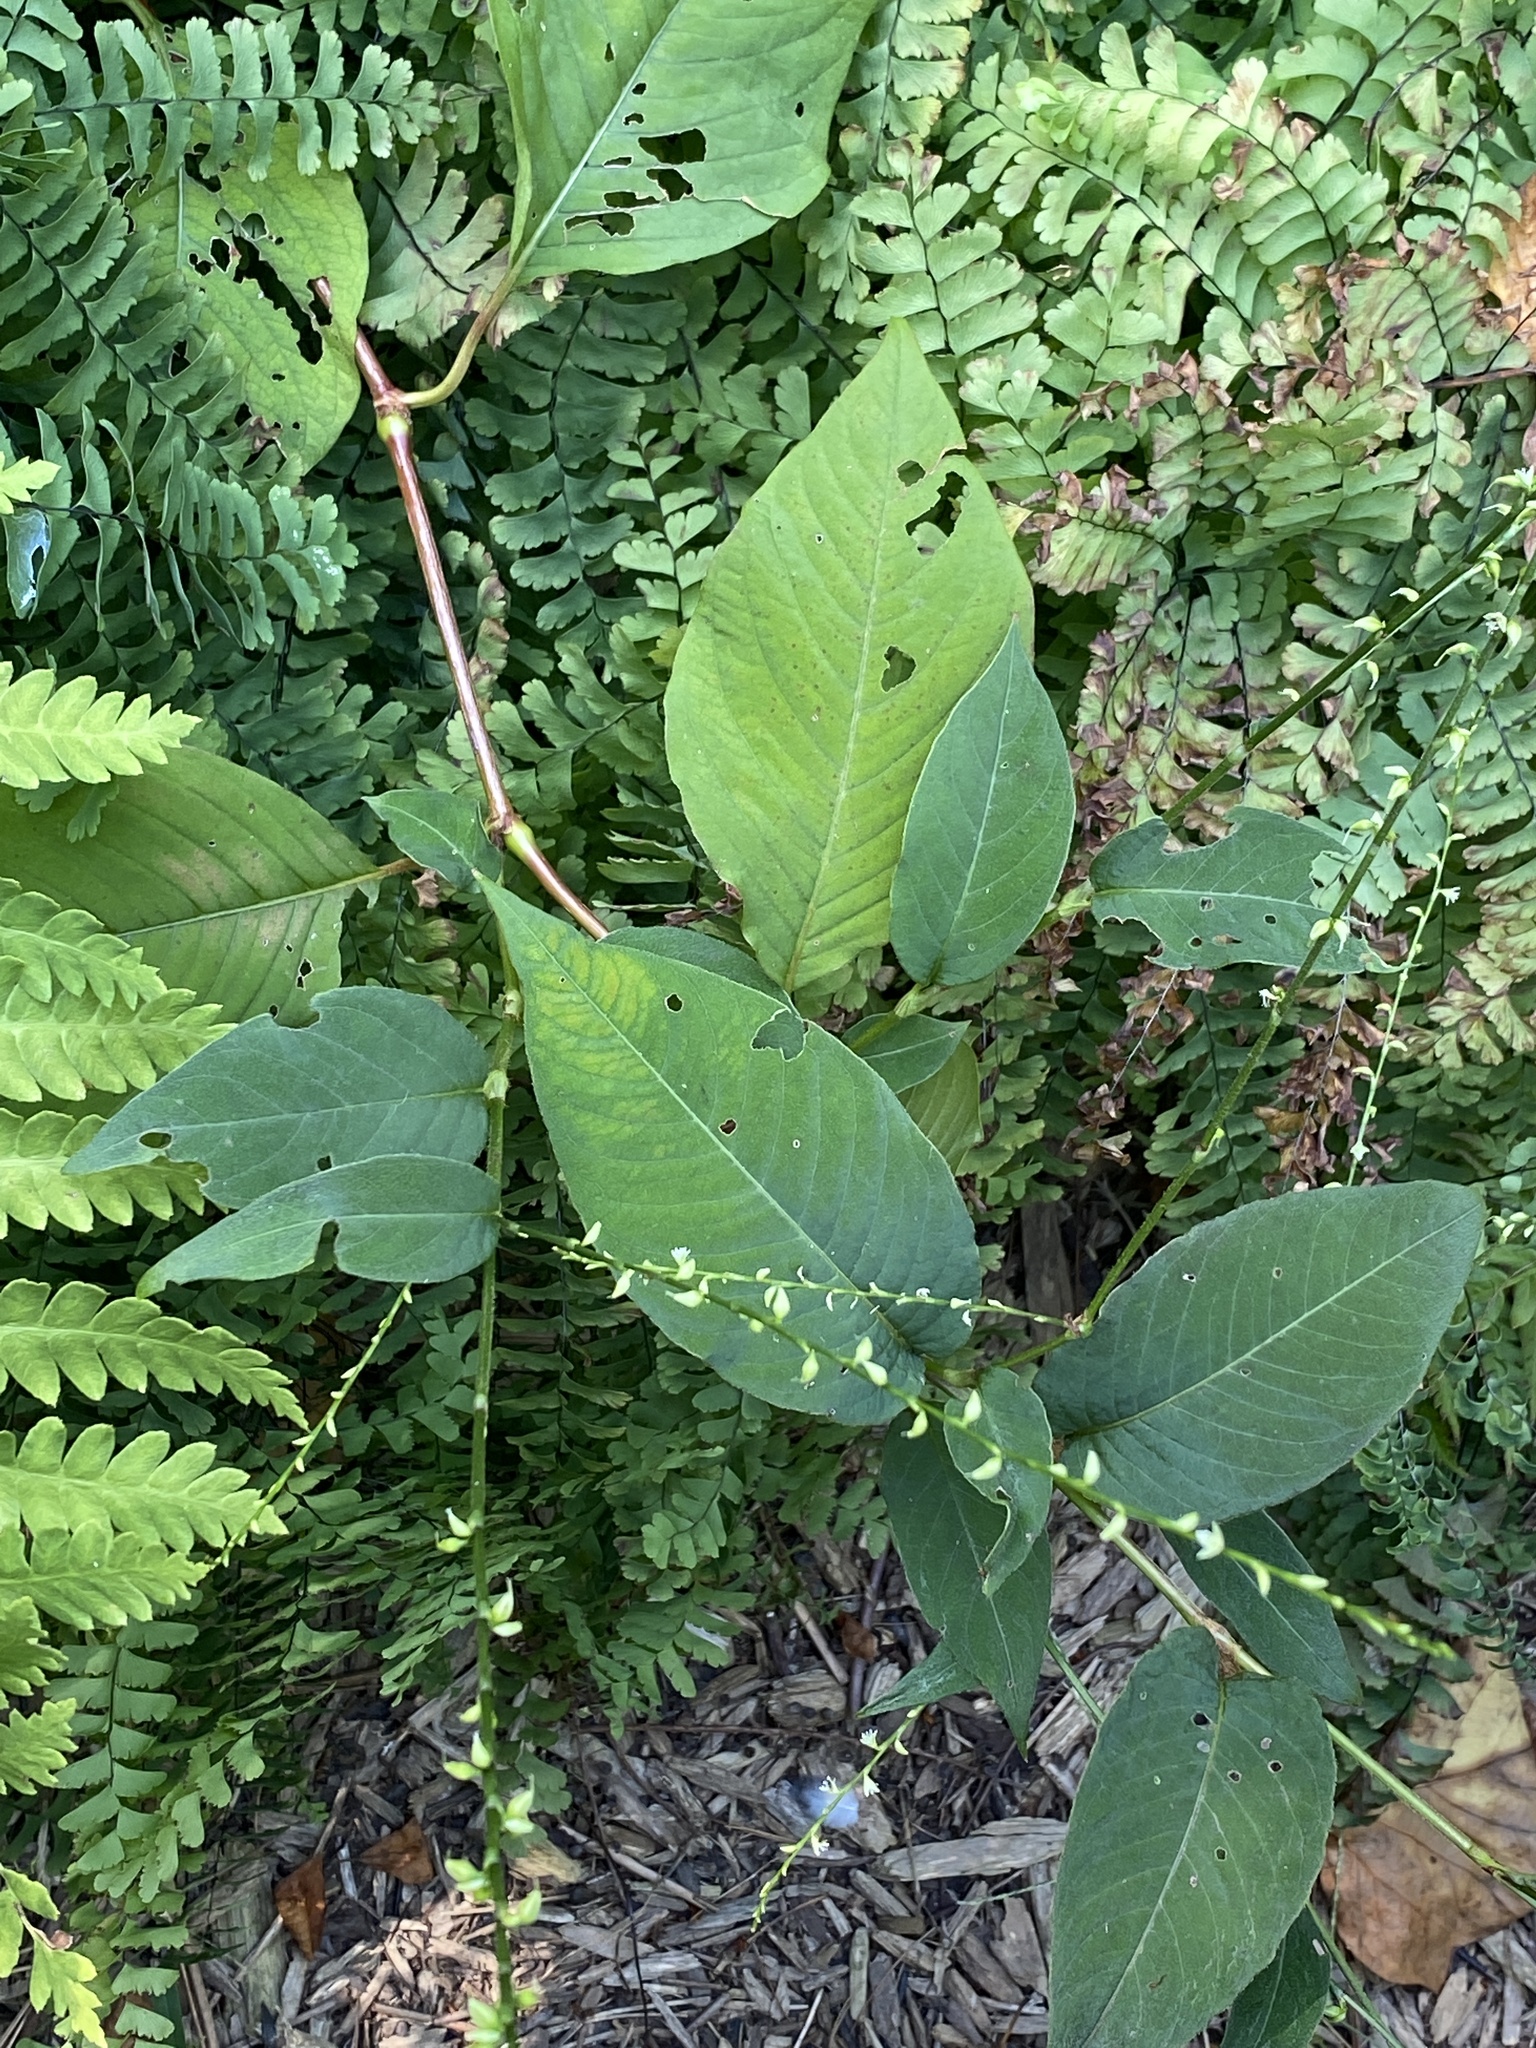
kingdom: Plantae
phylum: Tracheophyta
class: Magnoliopsida
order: Caryophyllales
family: Polygonaceae
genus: Persicaria
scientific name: Persicaria virginiana
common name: Jumpseed
